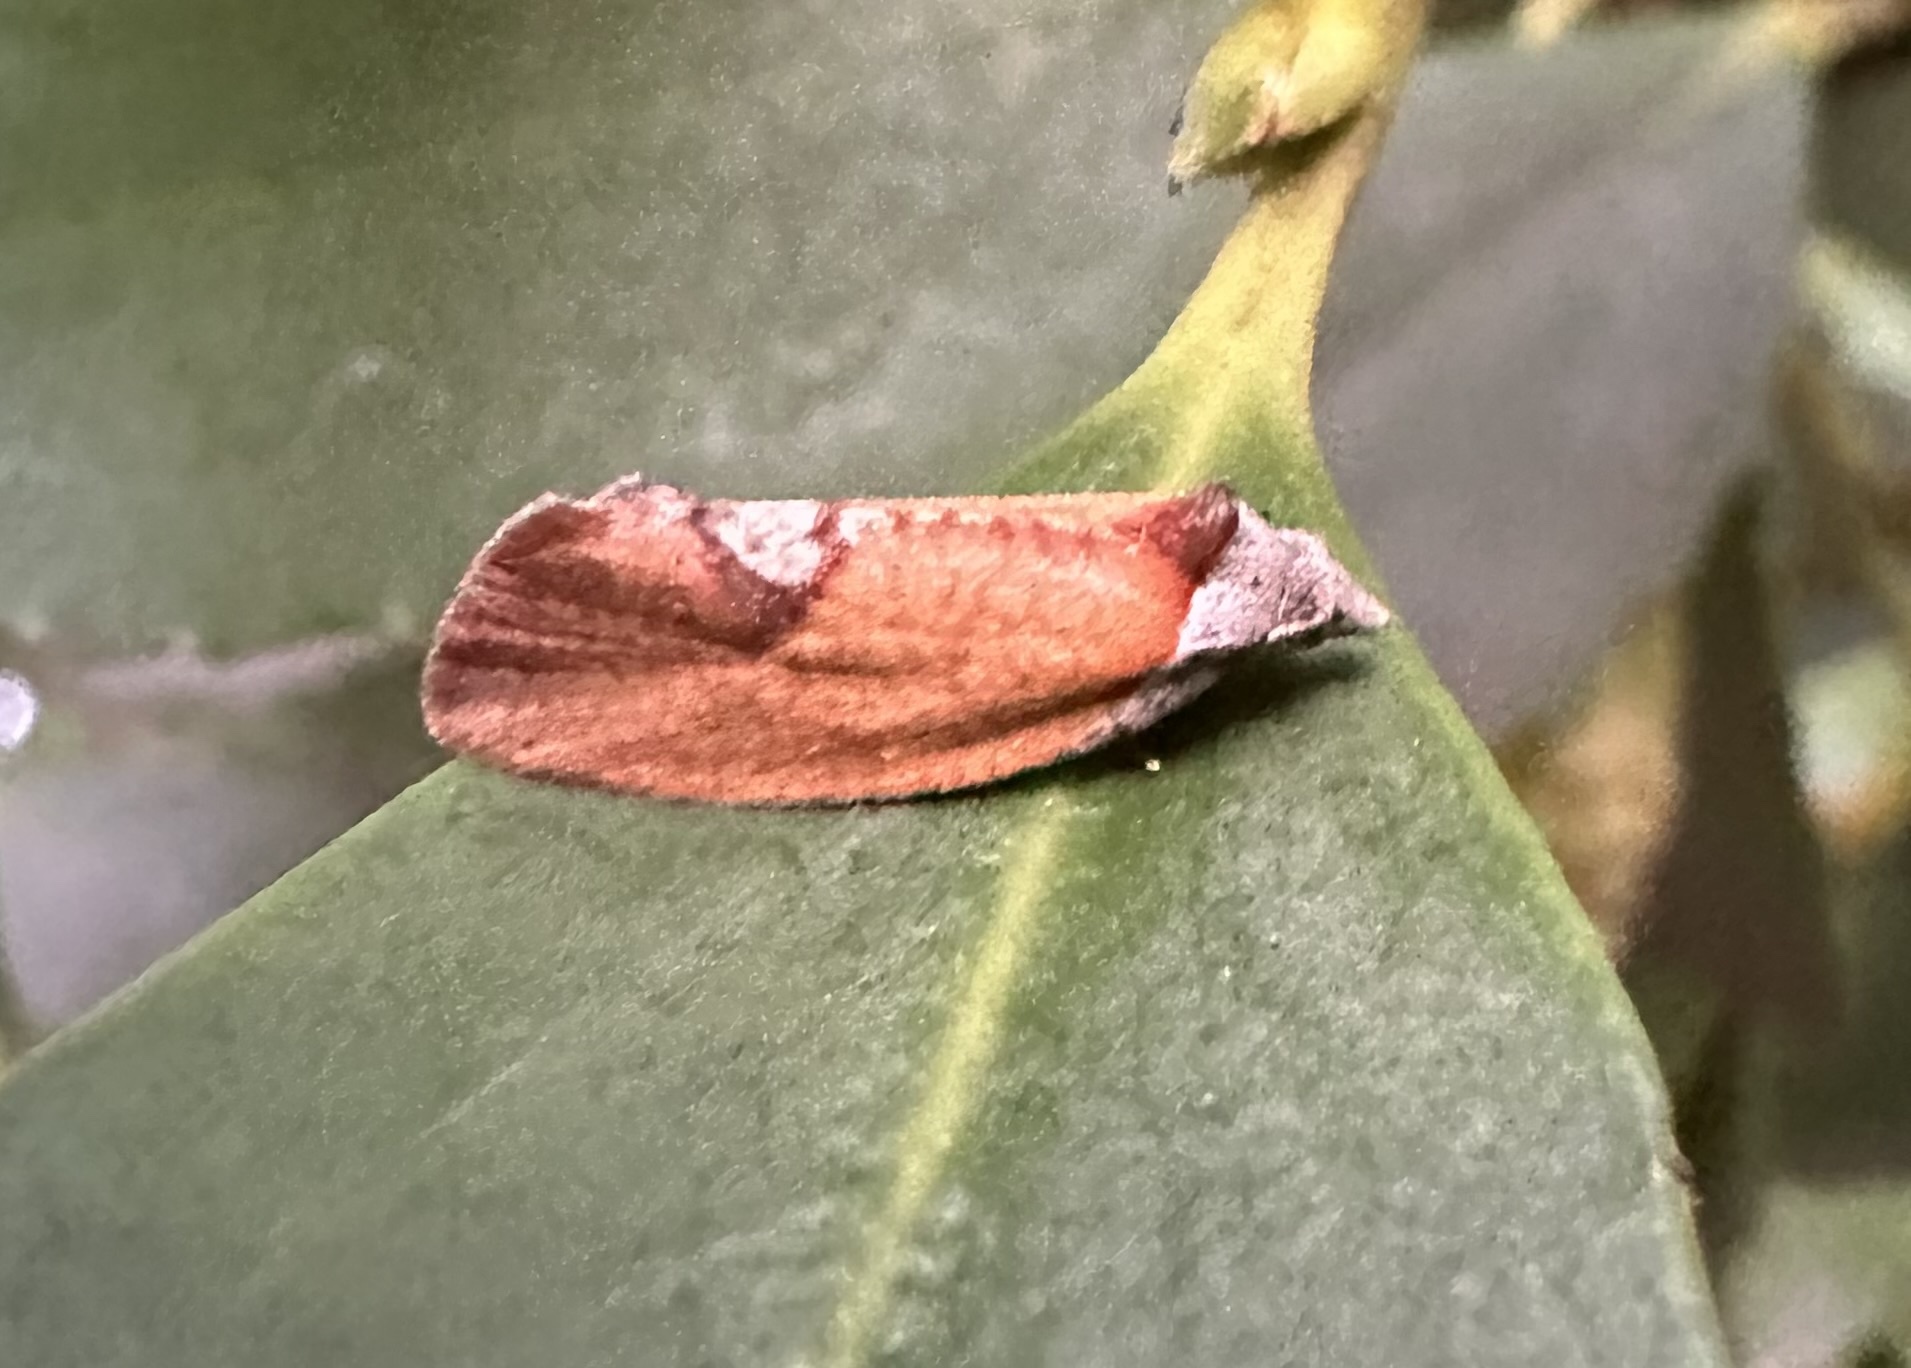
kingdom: Animalia
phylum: Arthropoda
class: Insecta
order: Lepidoptera
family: Tortricidae
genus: Proeulia
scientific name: Proeulia auraria
